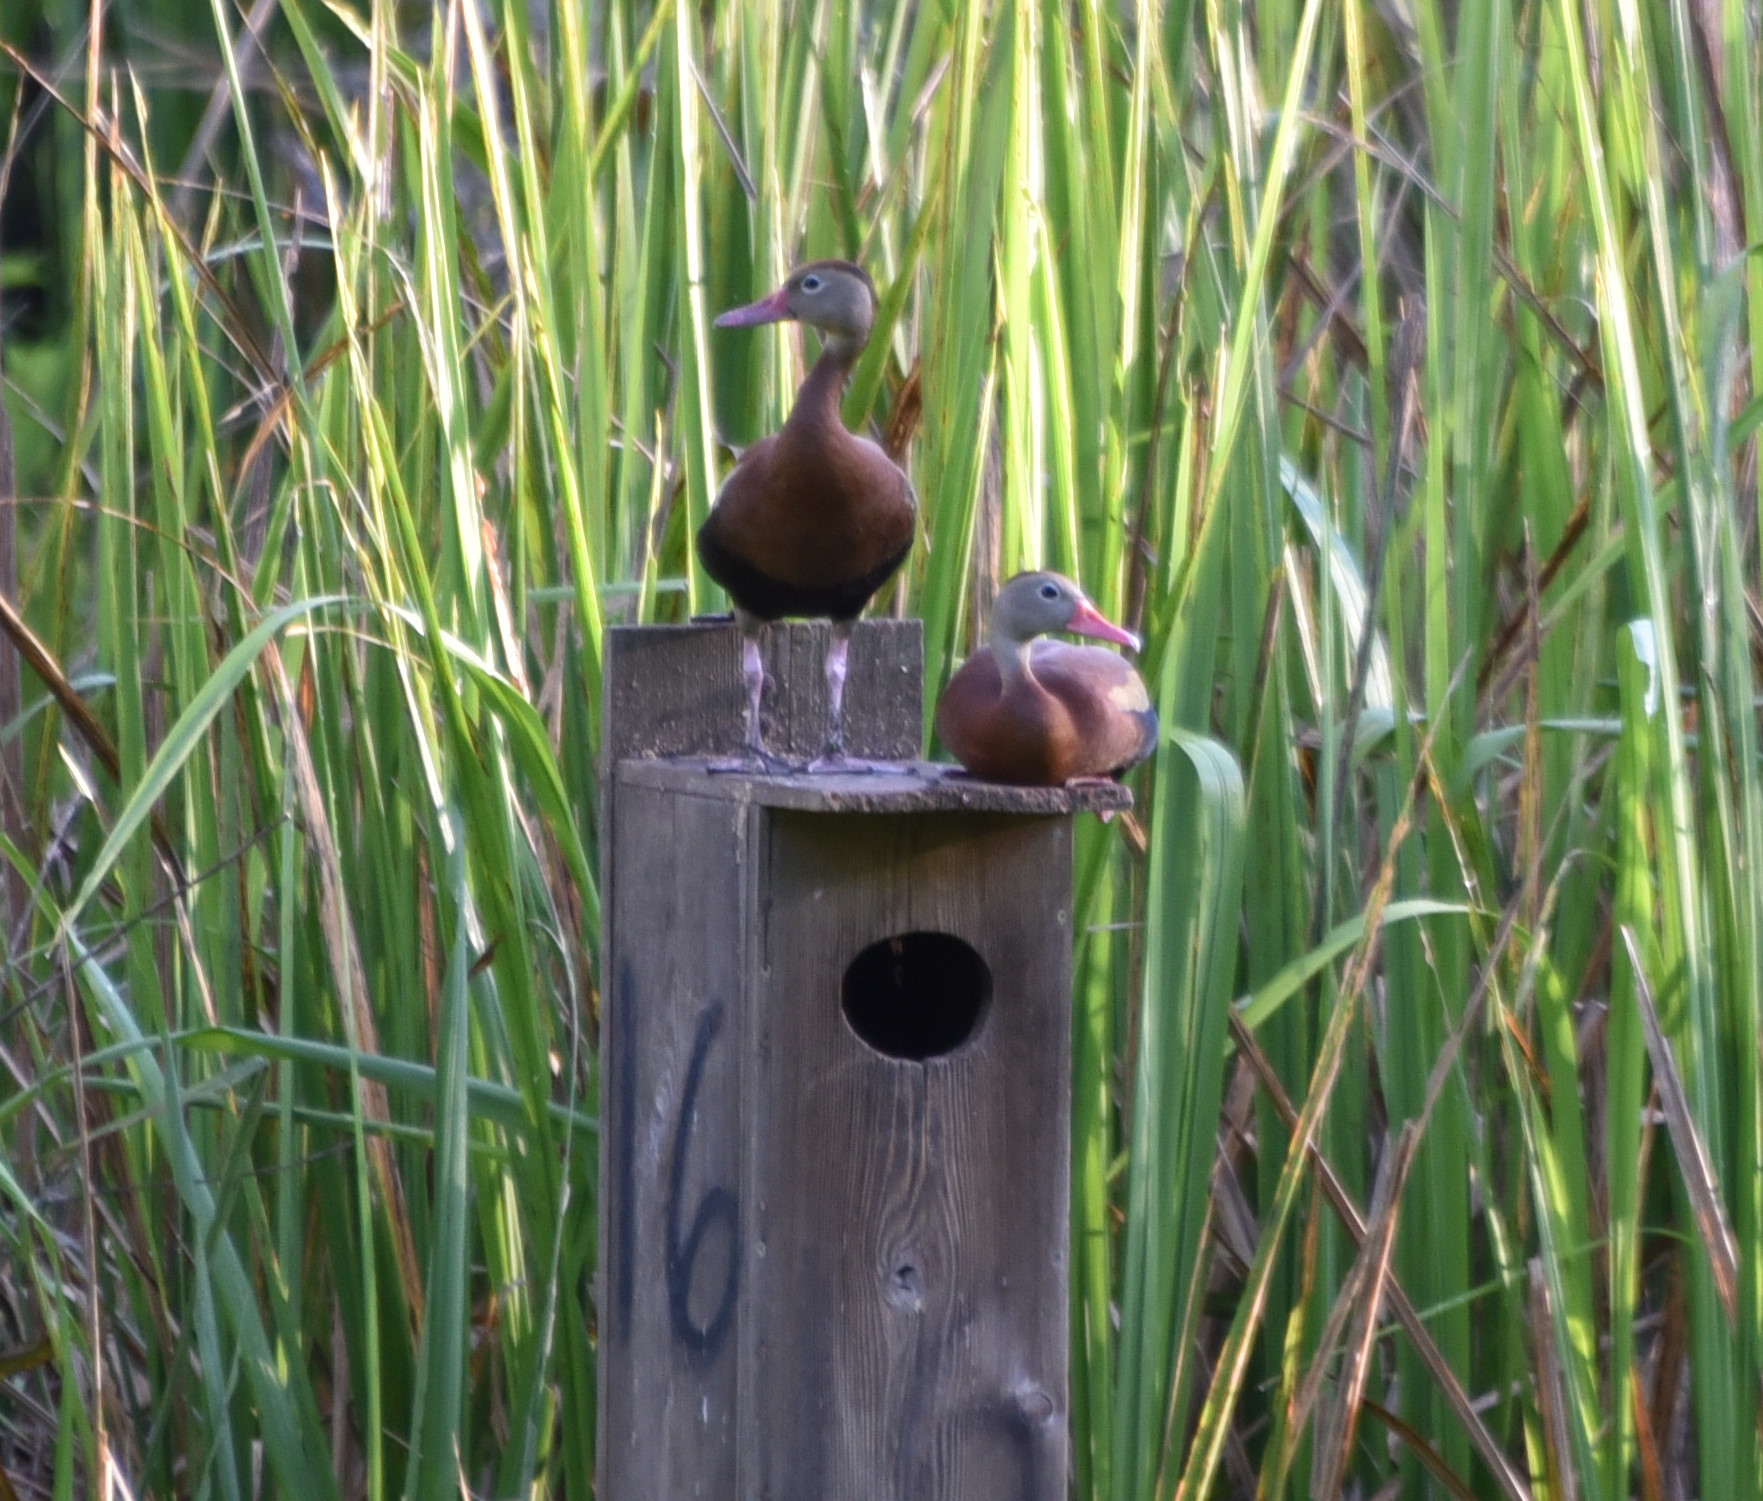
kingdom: Animalia
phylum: Chordata
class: Aves
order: Anseriformes
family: Anatidae
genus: Dendrocygna
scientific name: Dendrocygna autumnalis
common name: Black-bellied whistling duck
